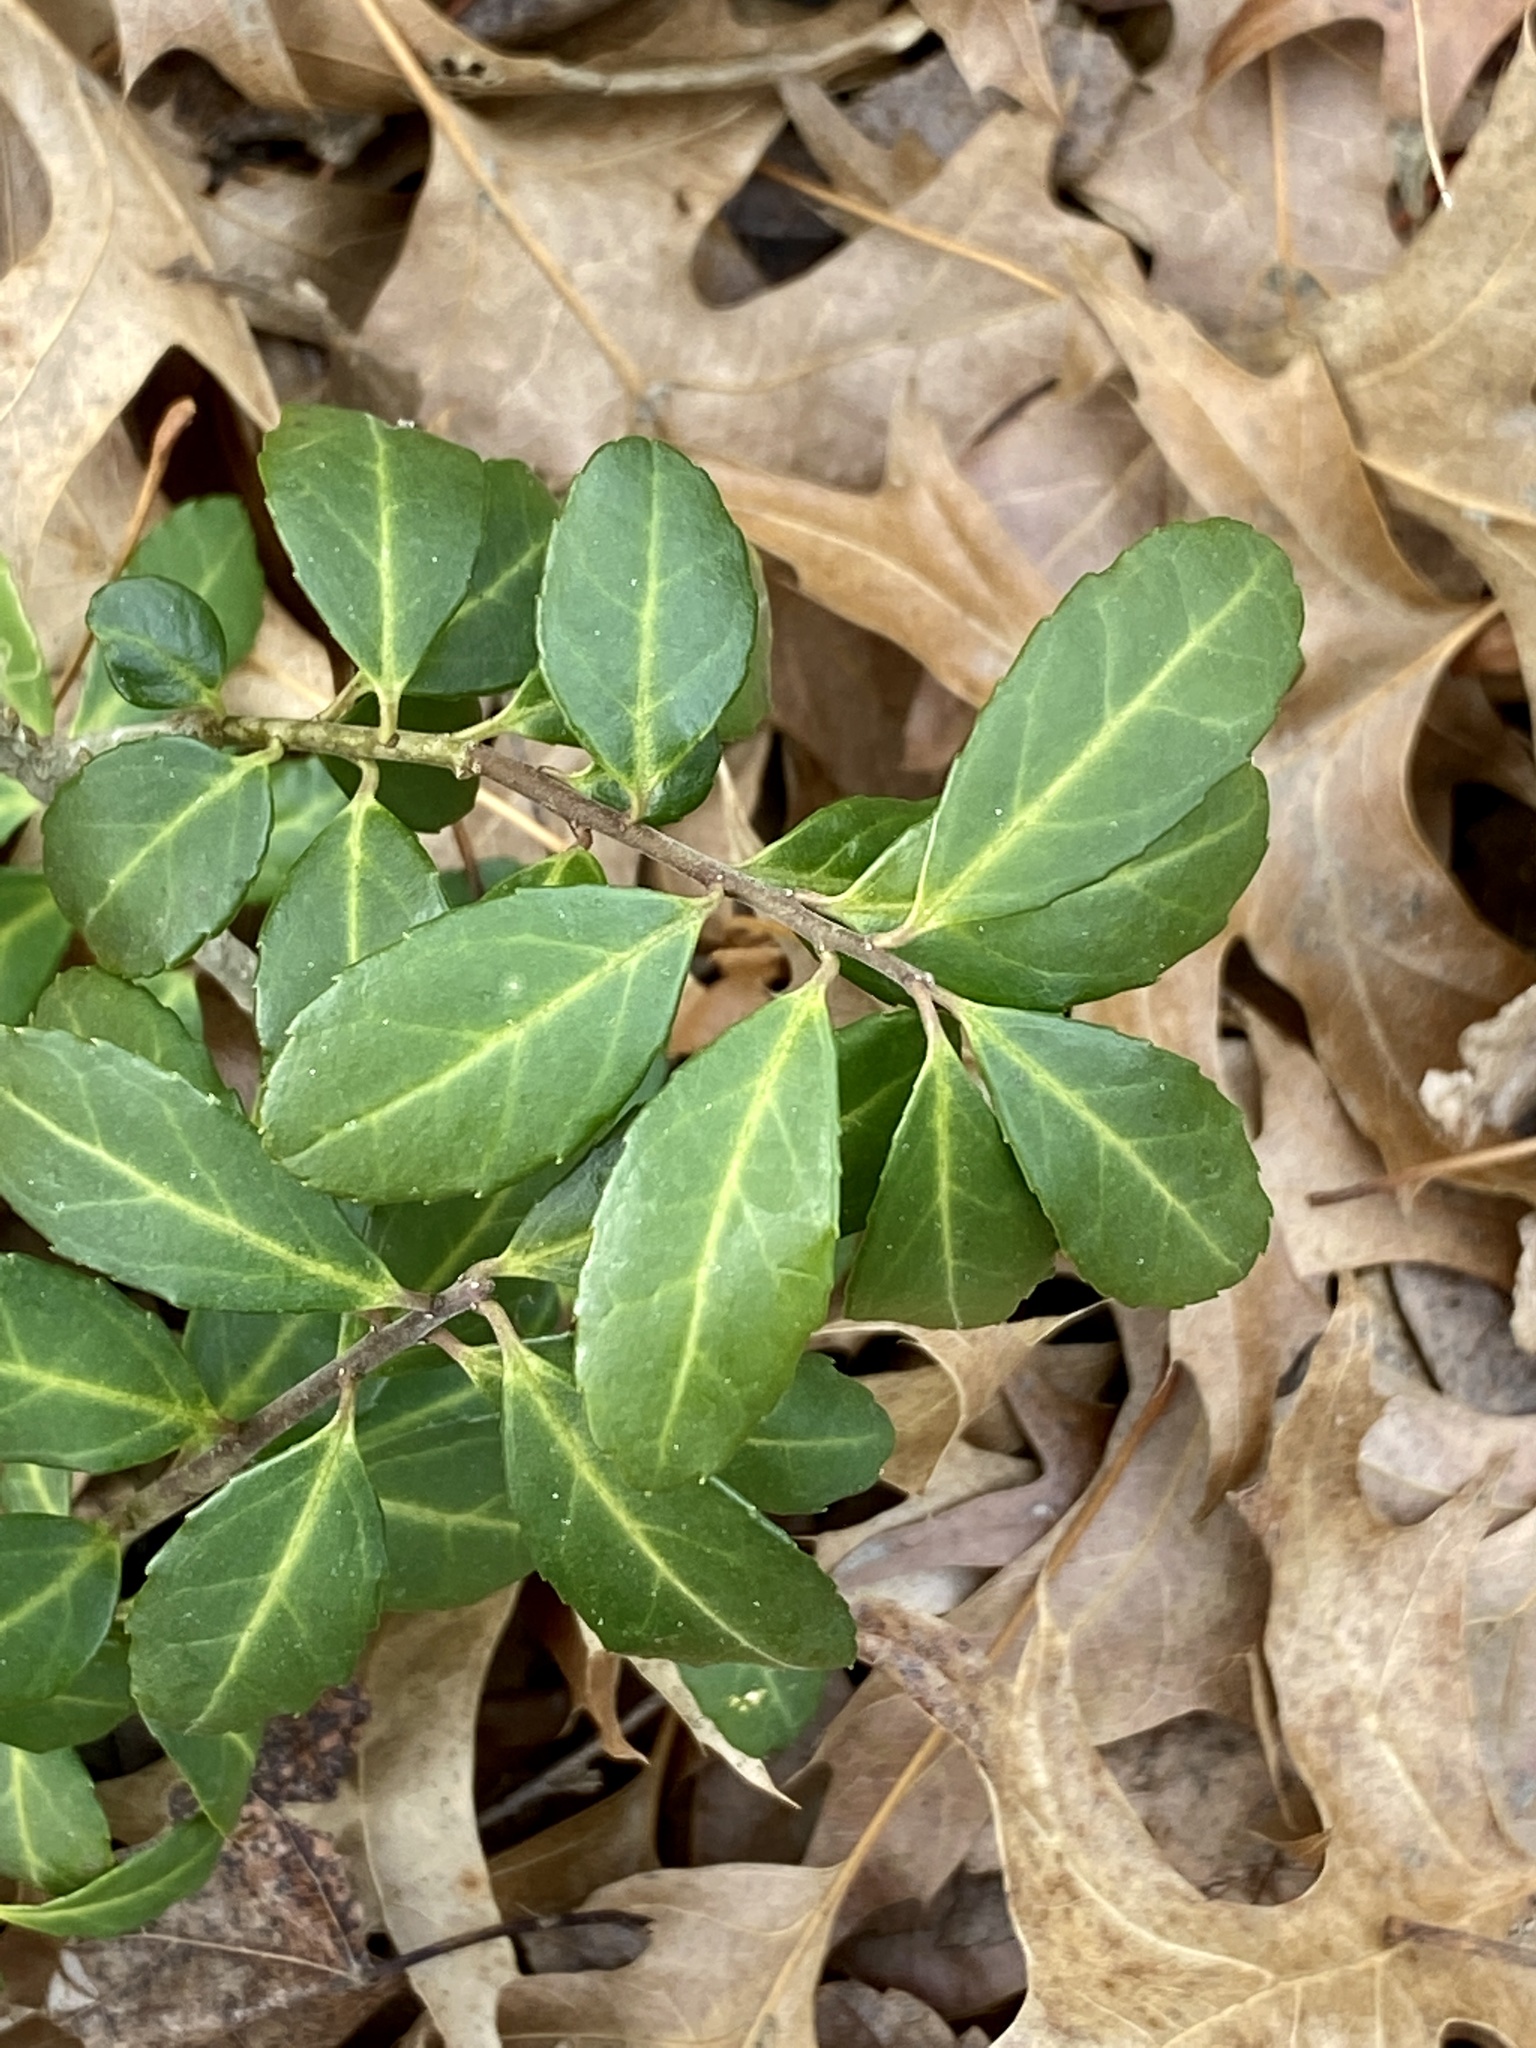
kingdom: Plantae
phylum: Tracheophyta
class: Magnoliopsida
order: Aquifoliales
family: Aquifoliaceae
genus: Ilex
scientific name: Ilex crenata
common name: Japanese holly
